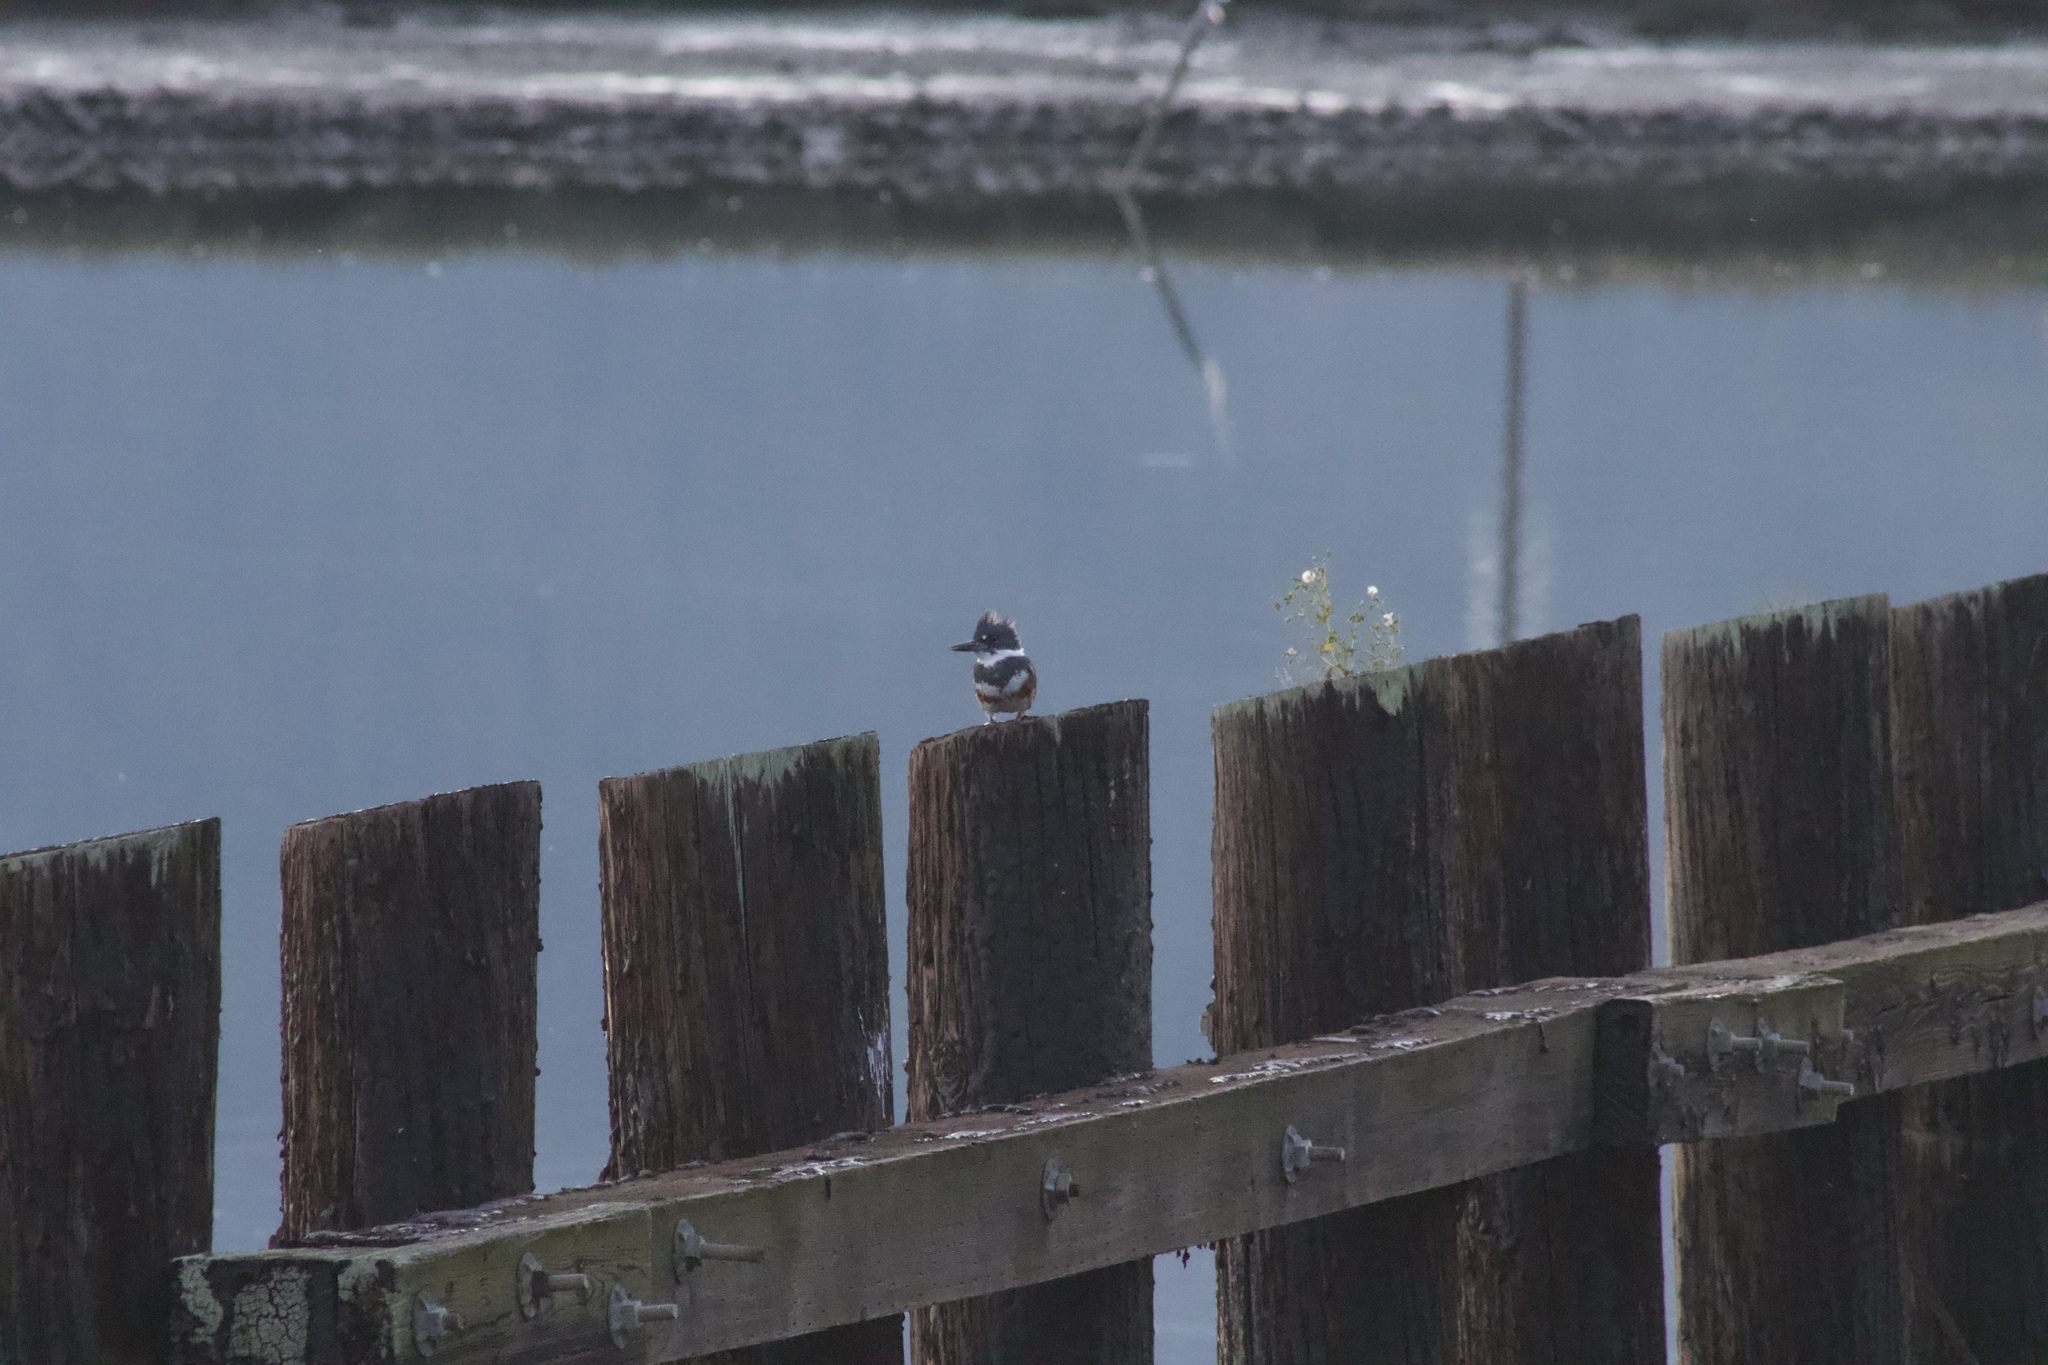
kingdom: Animalia
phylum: Chordata
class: Aves
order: Coraciiformes
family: Alcedinidae
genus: Megaceryle
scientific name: Megaceryle alcyon
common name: Belted kingfisher
